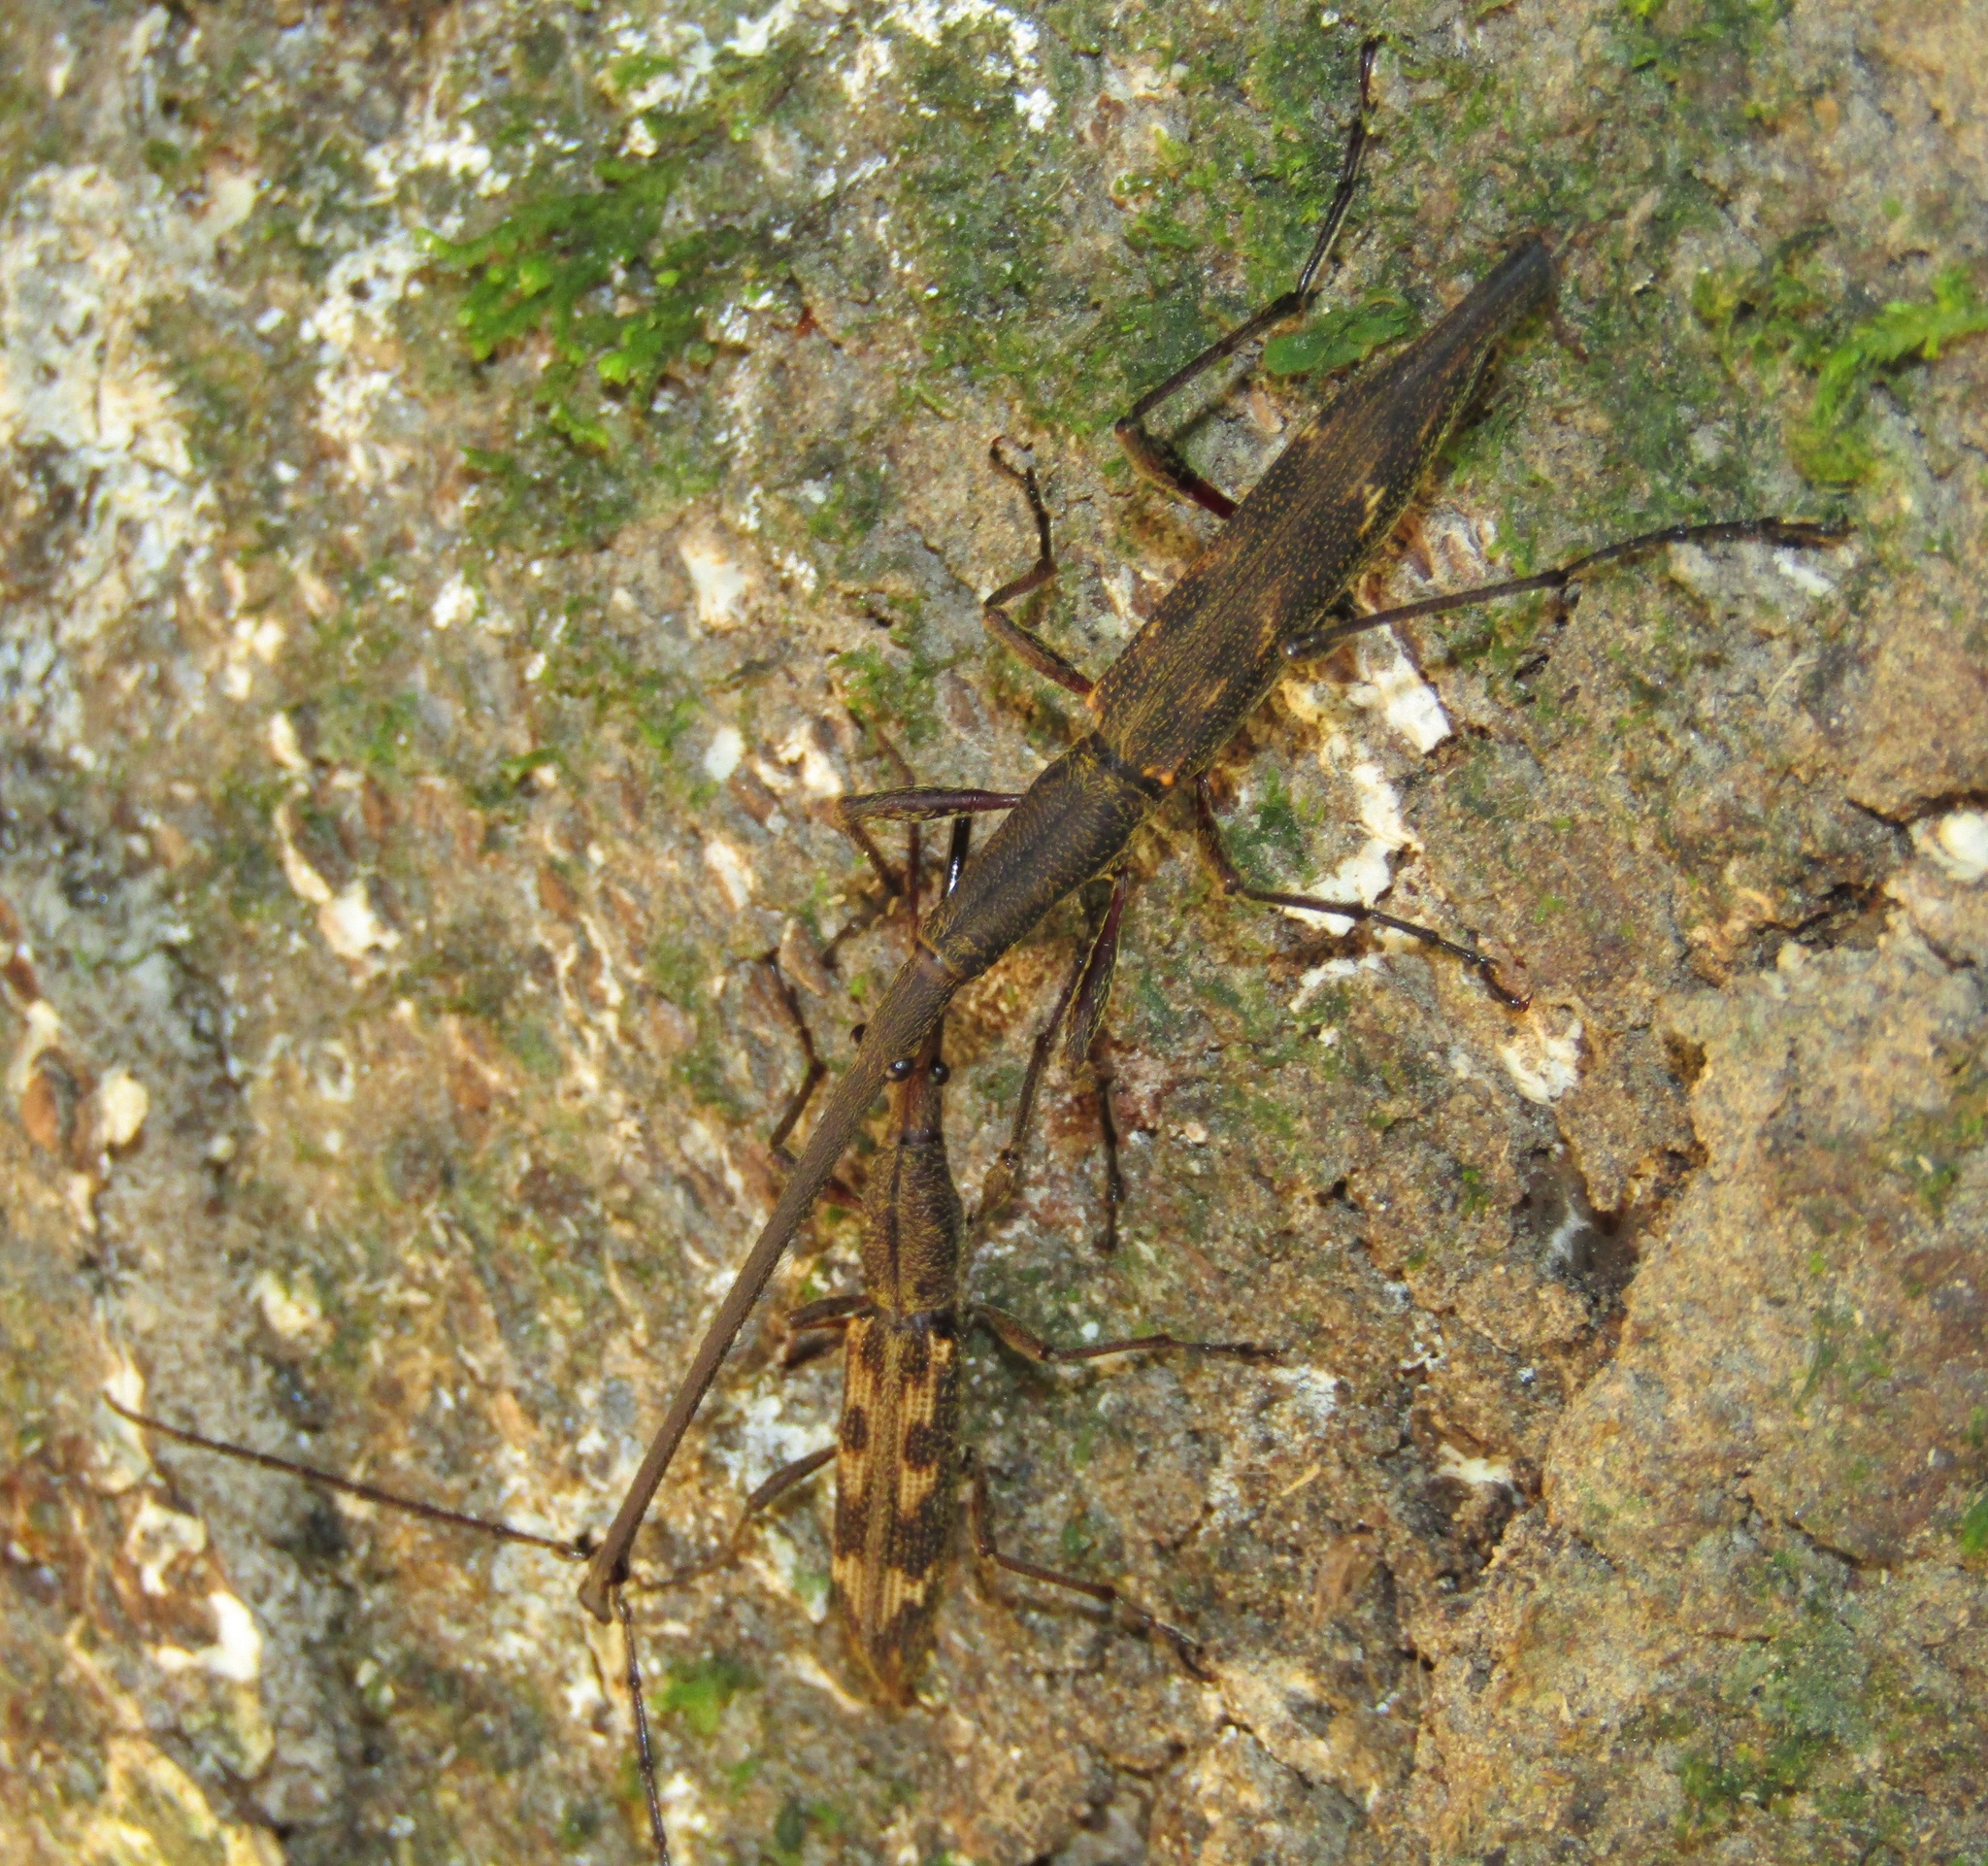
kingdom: Animalia
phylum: Arthropoda
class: Insecta
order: Coleoptera
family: Brentidae
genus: Lasiorhynchus
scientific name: Lasiorhynchus barbicornis
